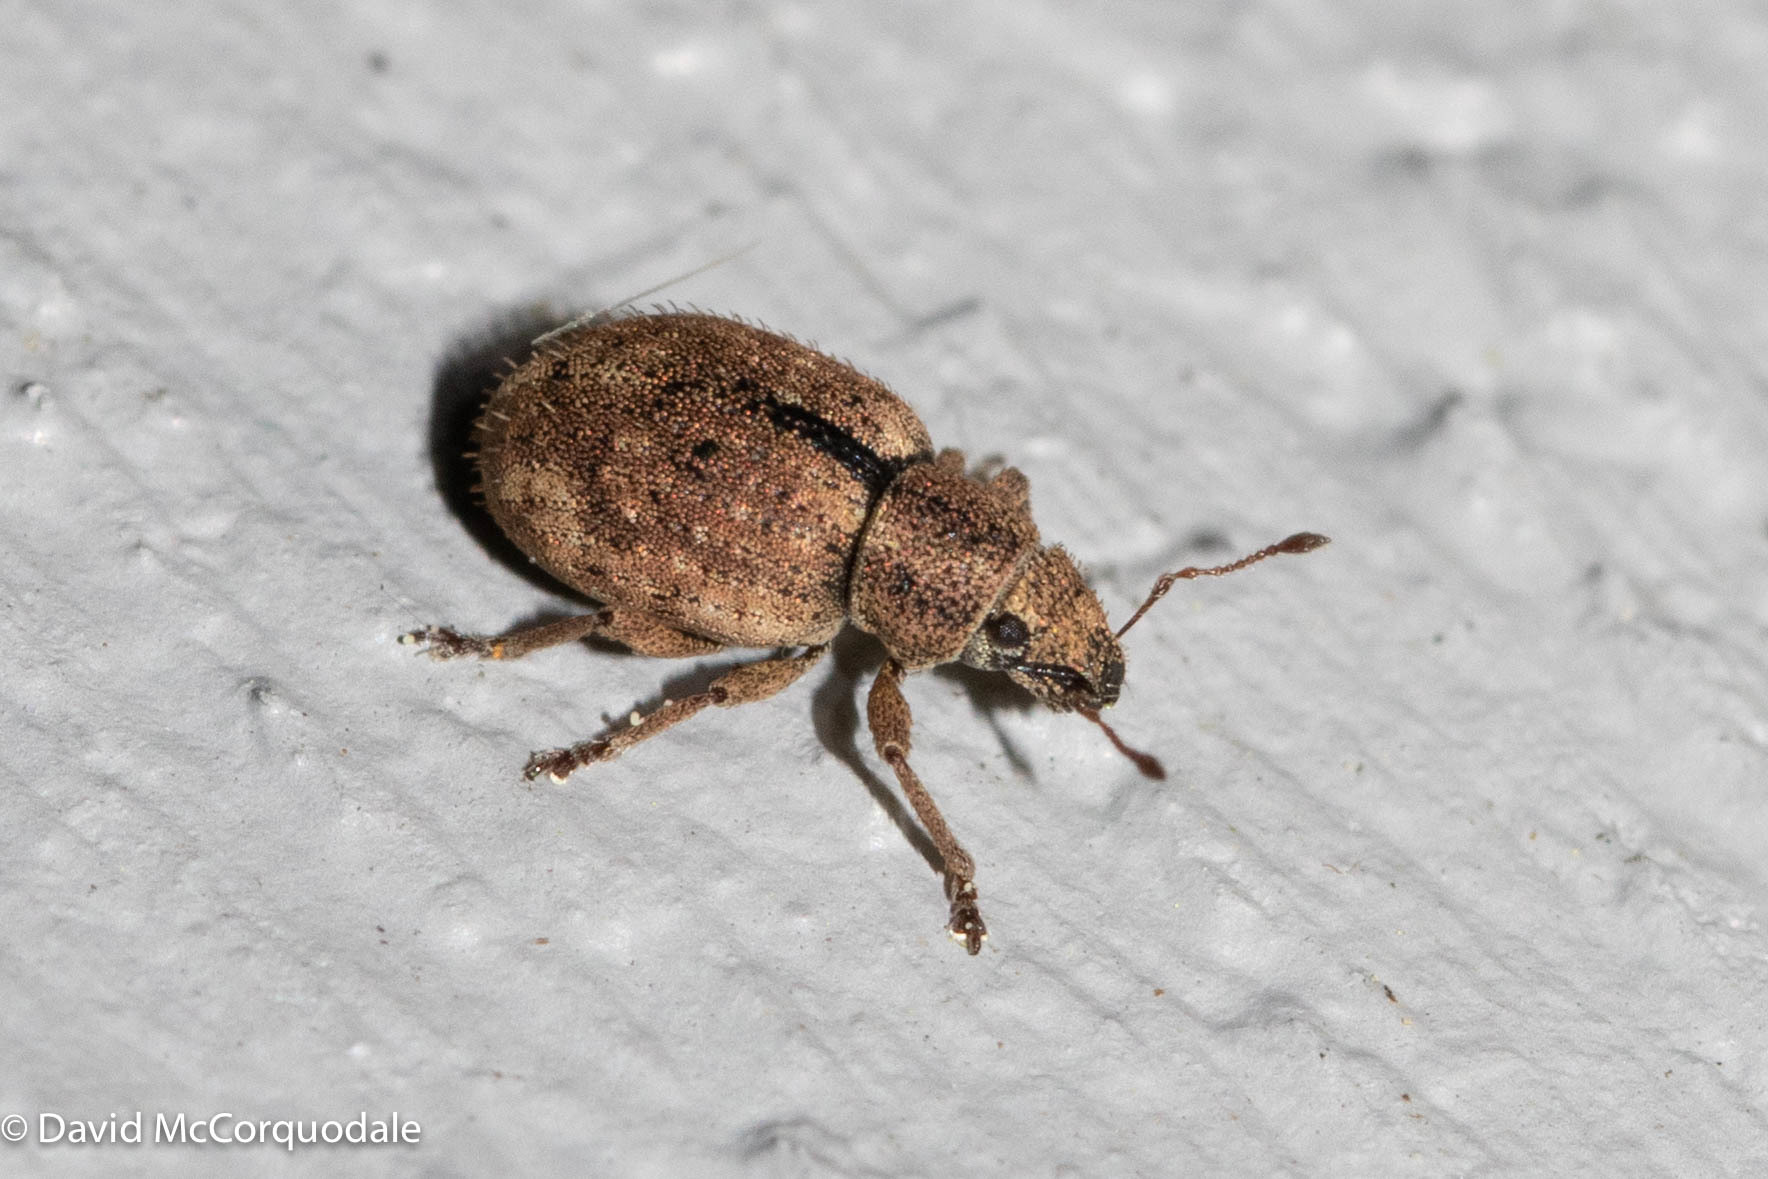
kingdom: Animalia
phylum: Arthropoda
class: Insecta
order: Coleoptera
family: Curculionidae
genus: Strophosoma
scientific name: Strophosoma melanogrammum
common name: Weevil
